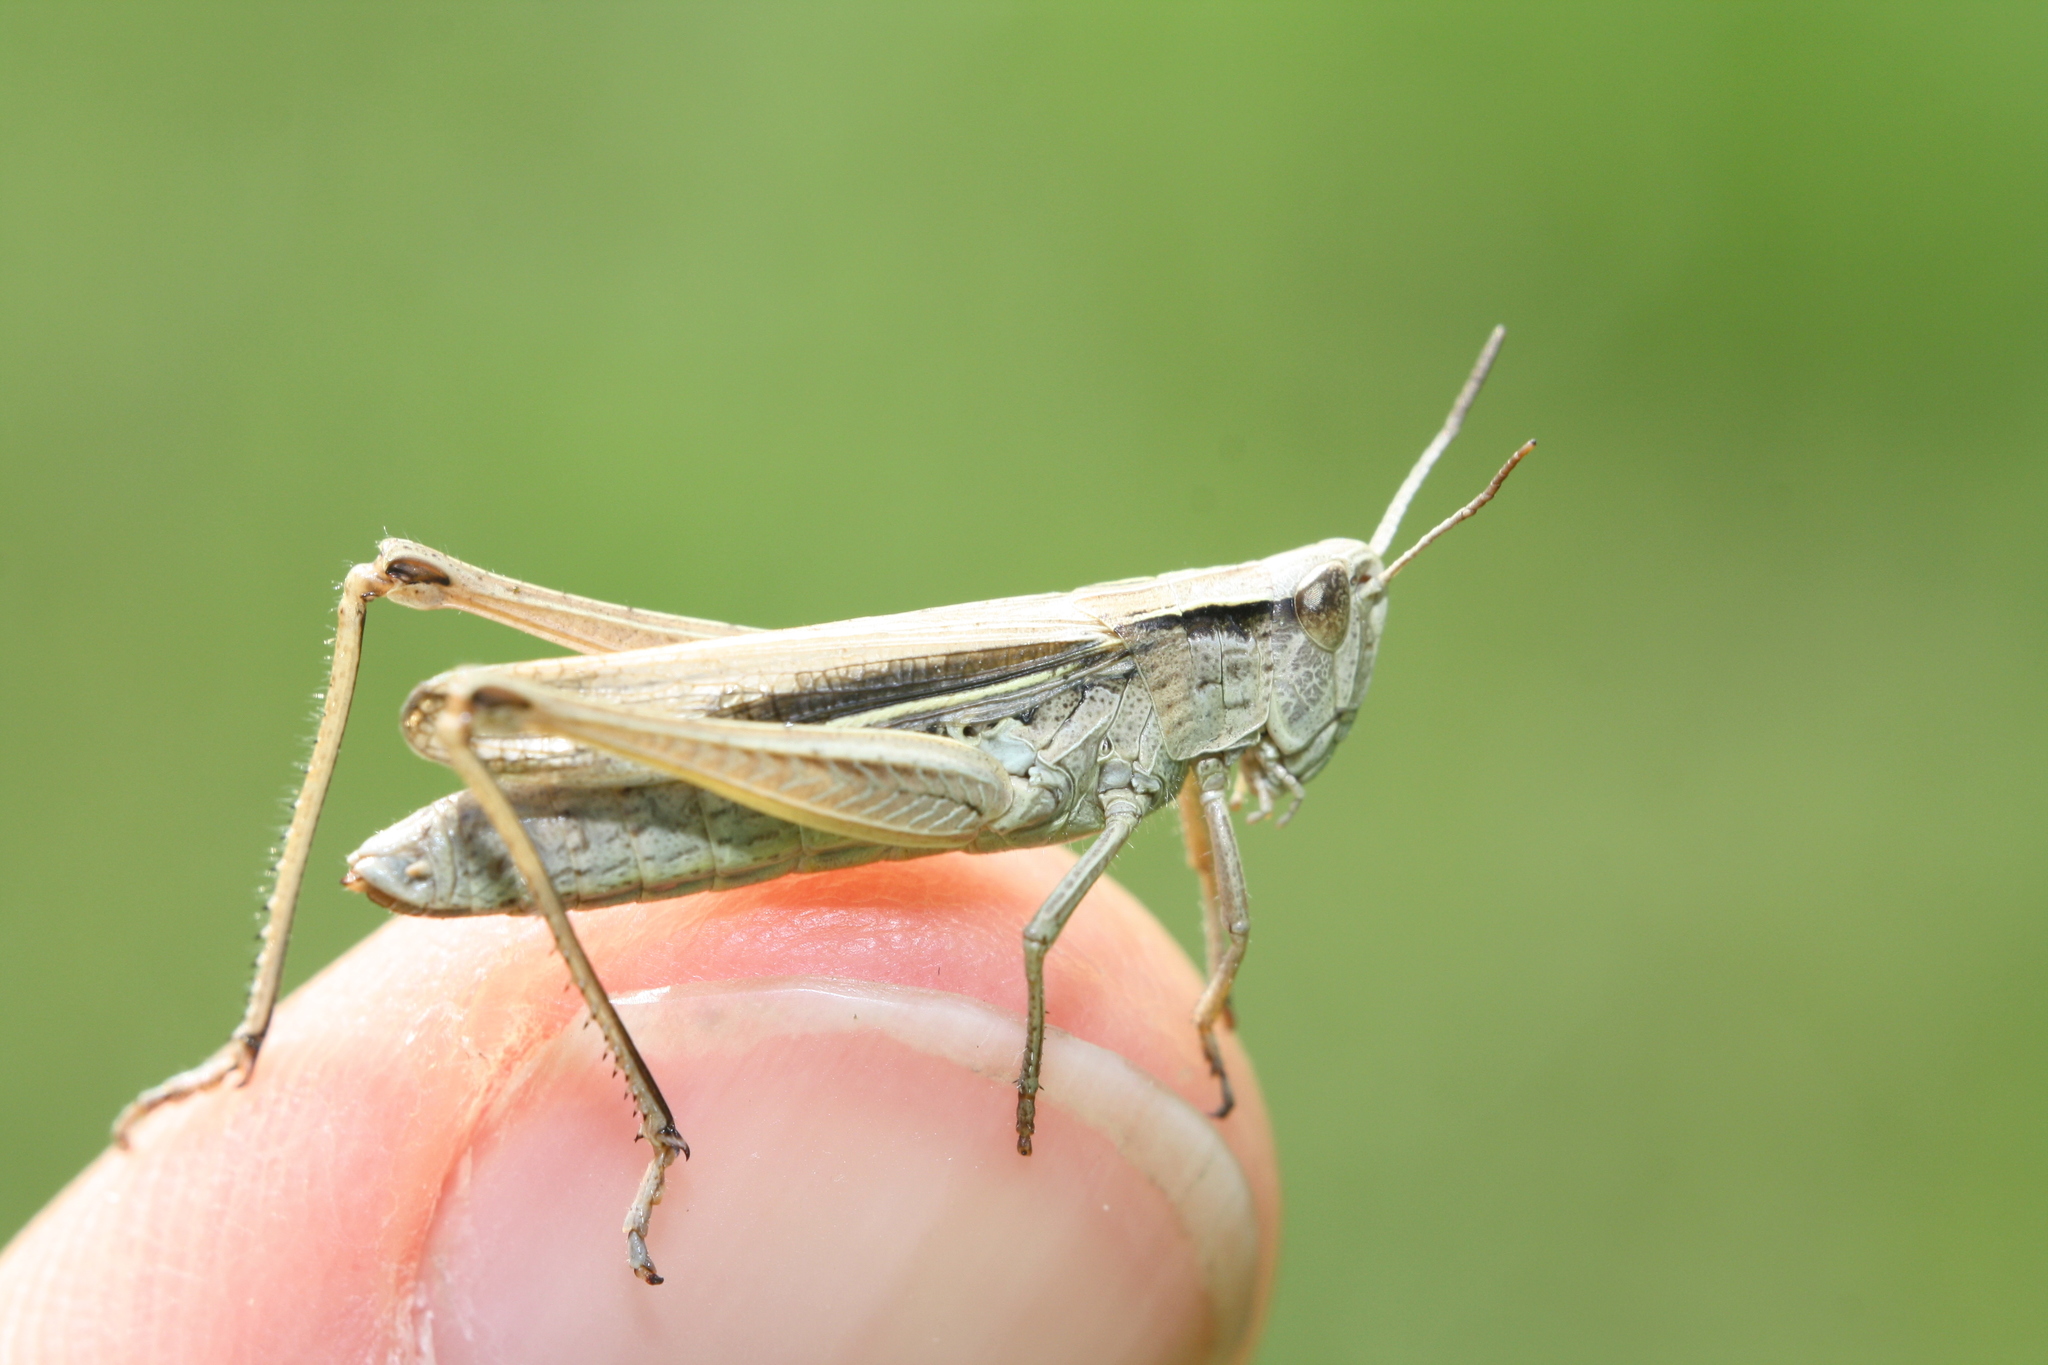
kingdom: Animalia
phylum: Arthropoda
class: Insecta
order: Orthoptera
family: Acrididae
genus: Chorthippus
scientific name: Chorthippus albomarginatus
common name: Lesser marsh grasshopper
